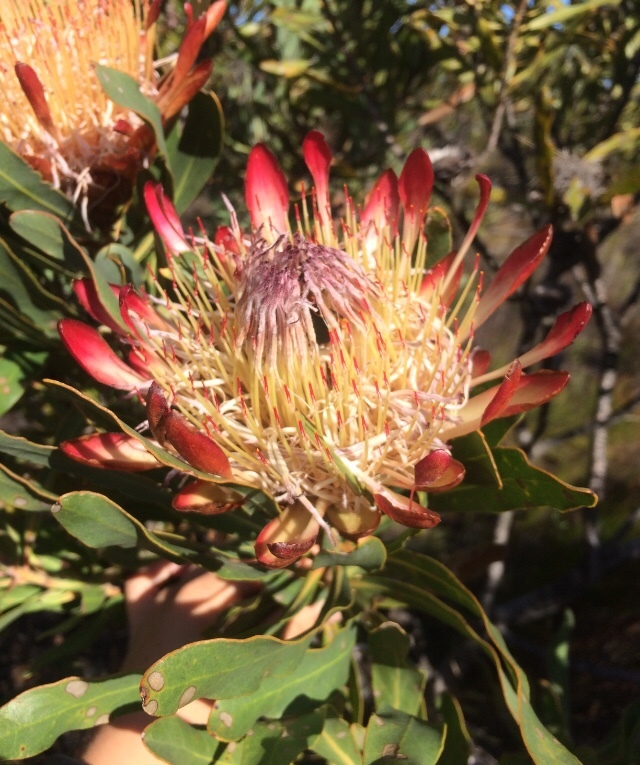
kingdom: Plantae
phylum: Tracheophyta
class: Magnoliopsida
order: Proteales
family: Proteaceae
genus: Protea
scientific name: Protea susannae
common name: Foetid-leaf sugarbush
